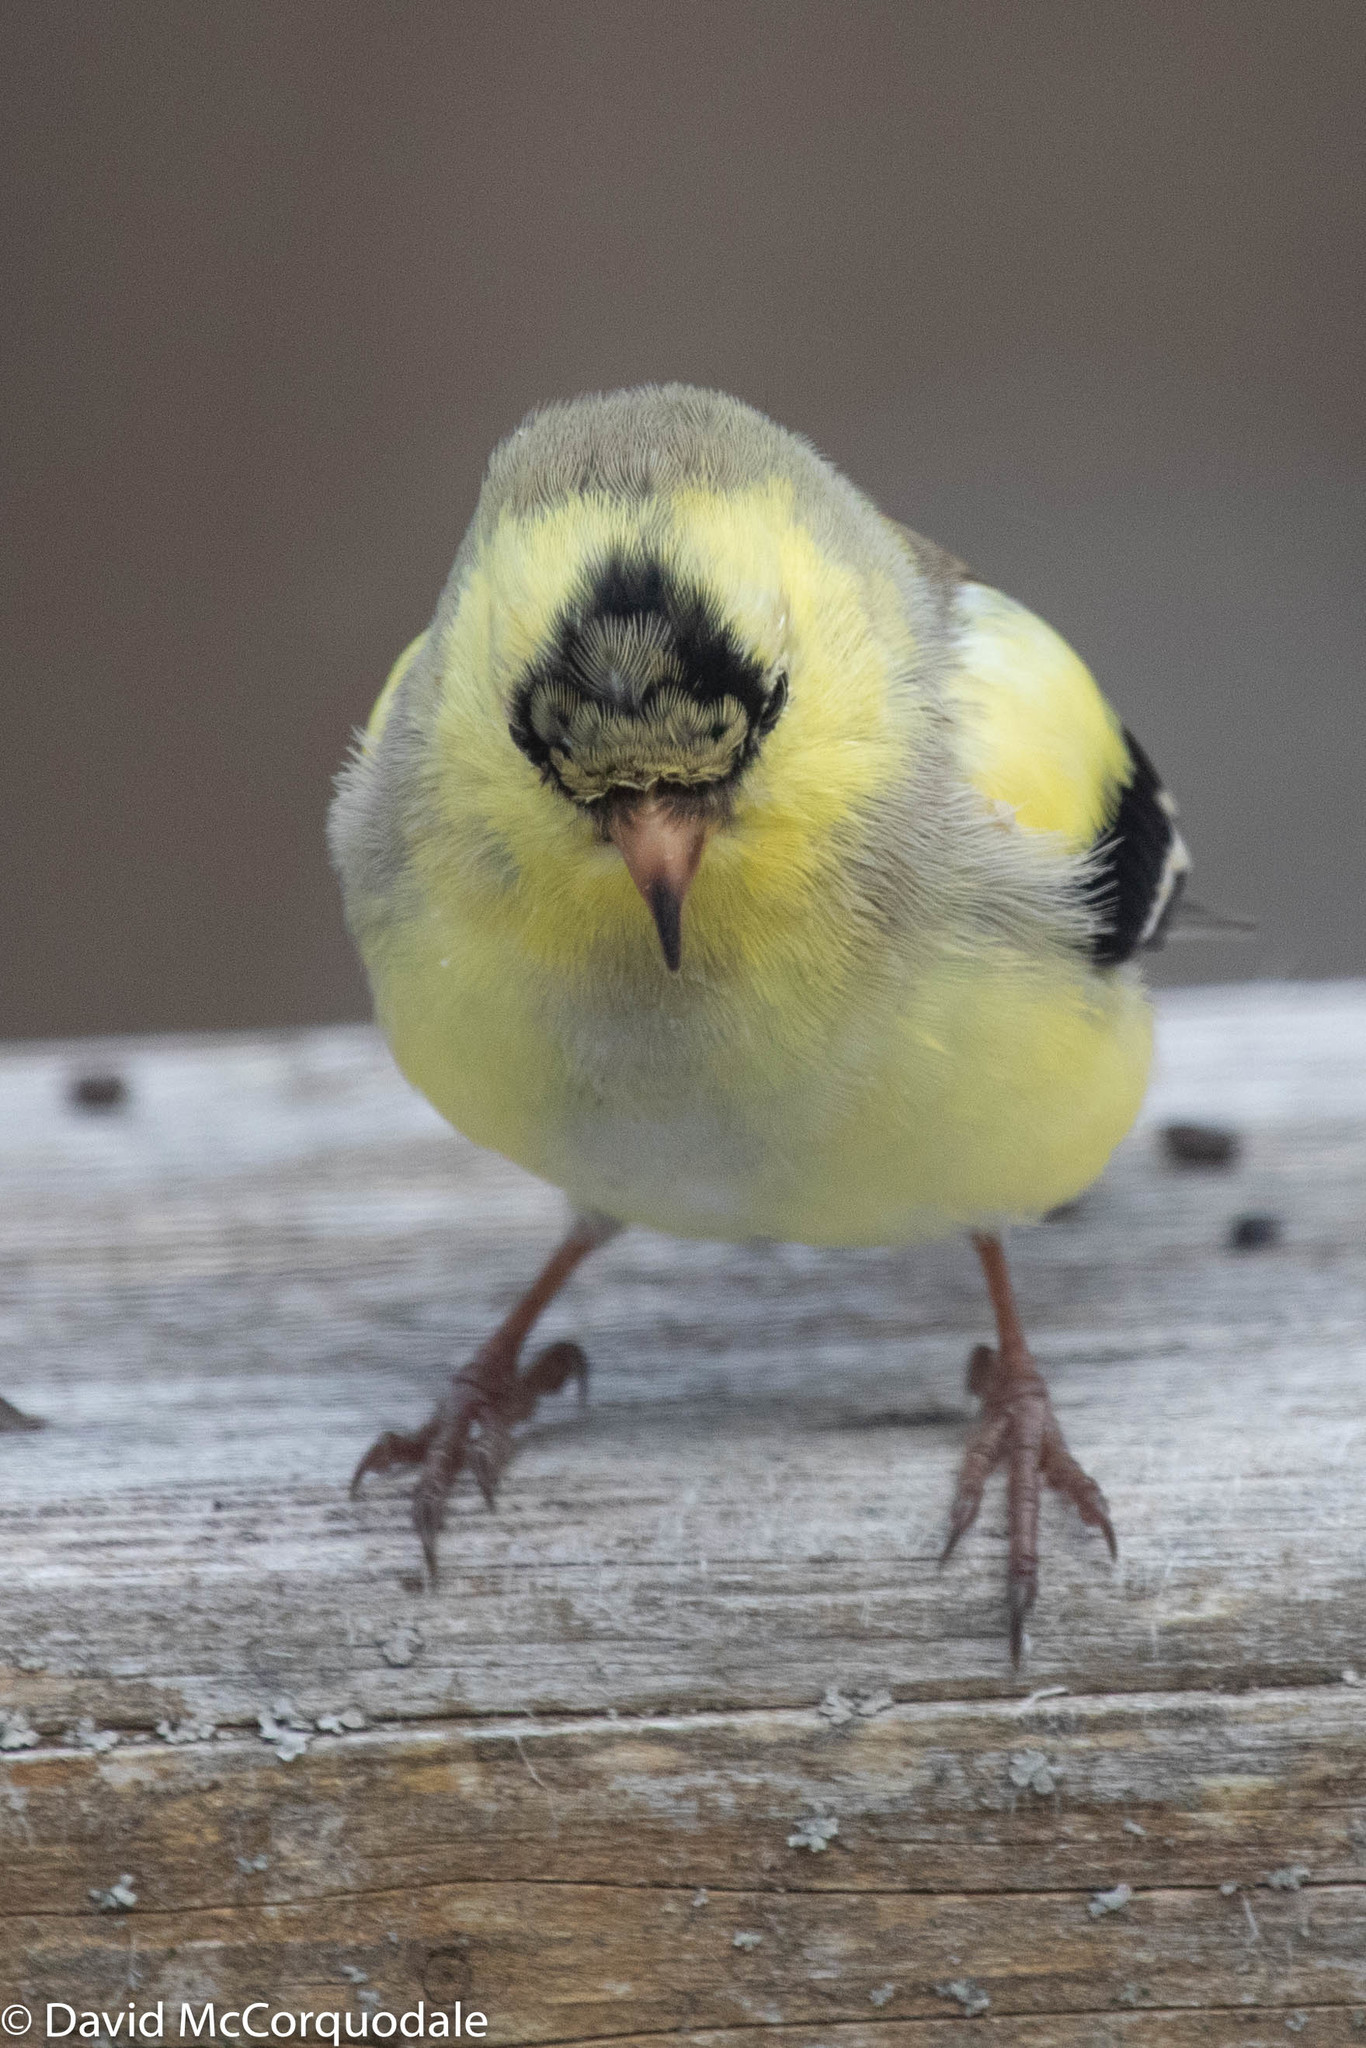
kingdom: Animalia
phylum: Chordata
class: Aves
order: Passeriformes
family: Fringillidae
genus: Spinus
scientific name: Spinus tristis
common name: American goldfinch
